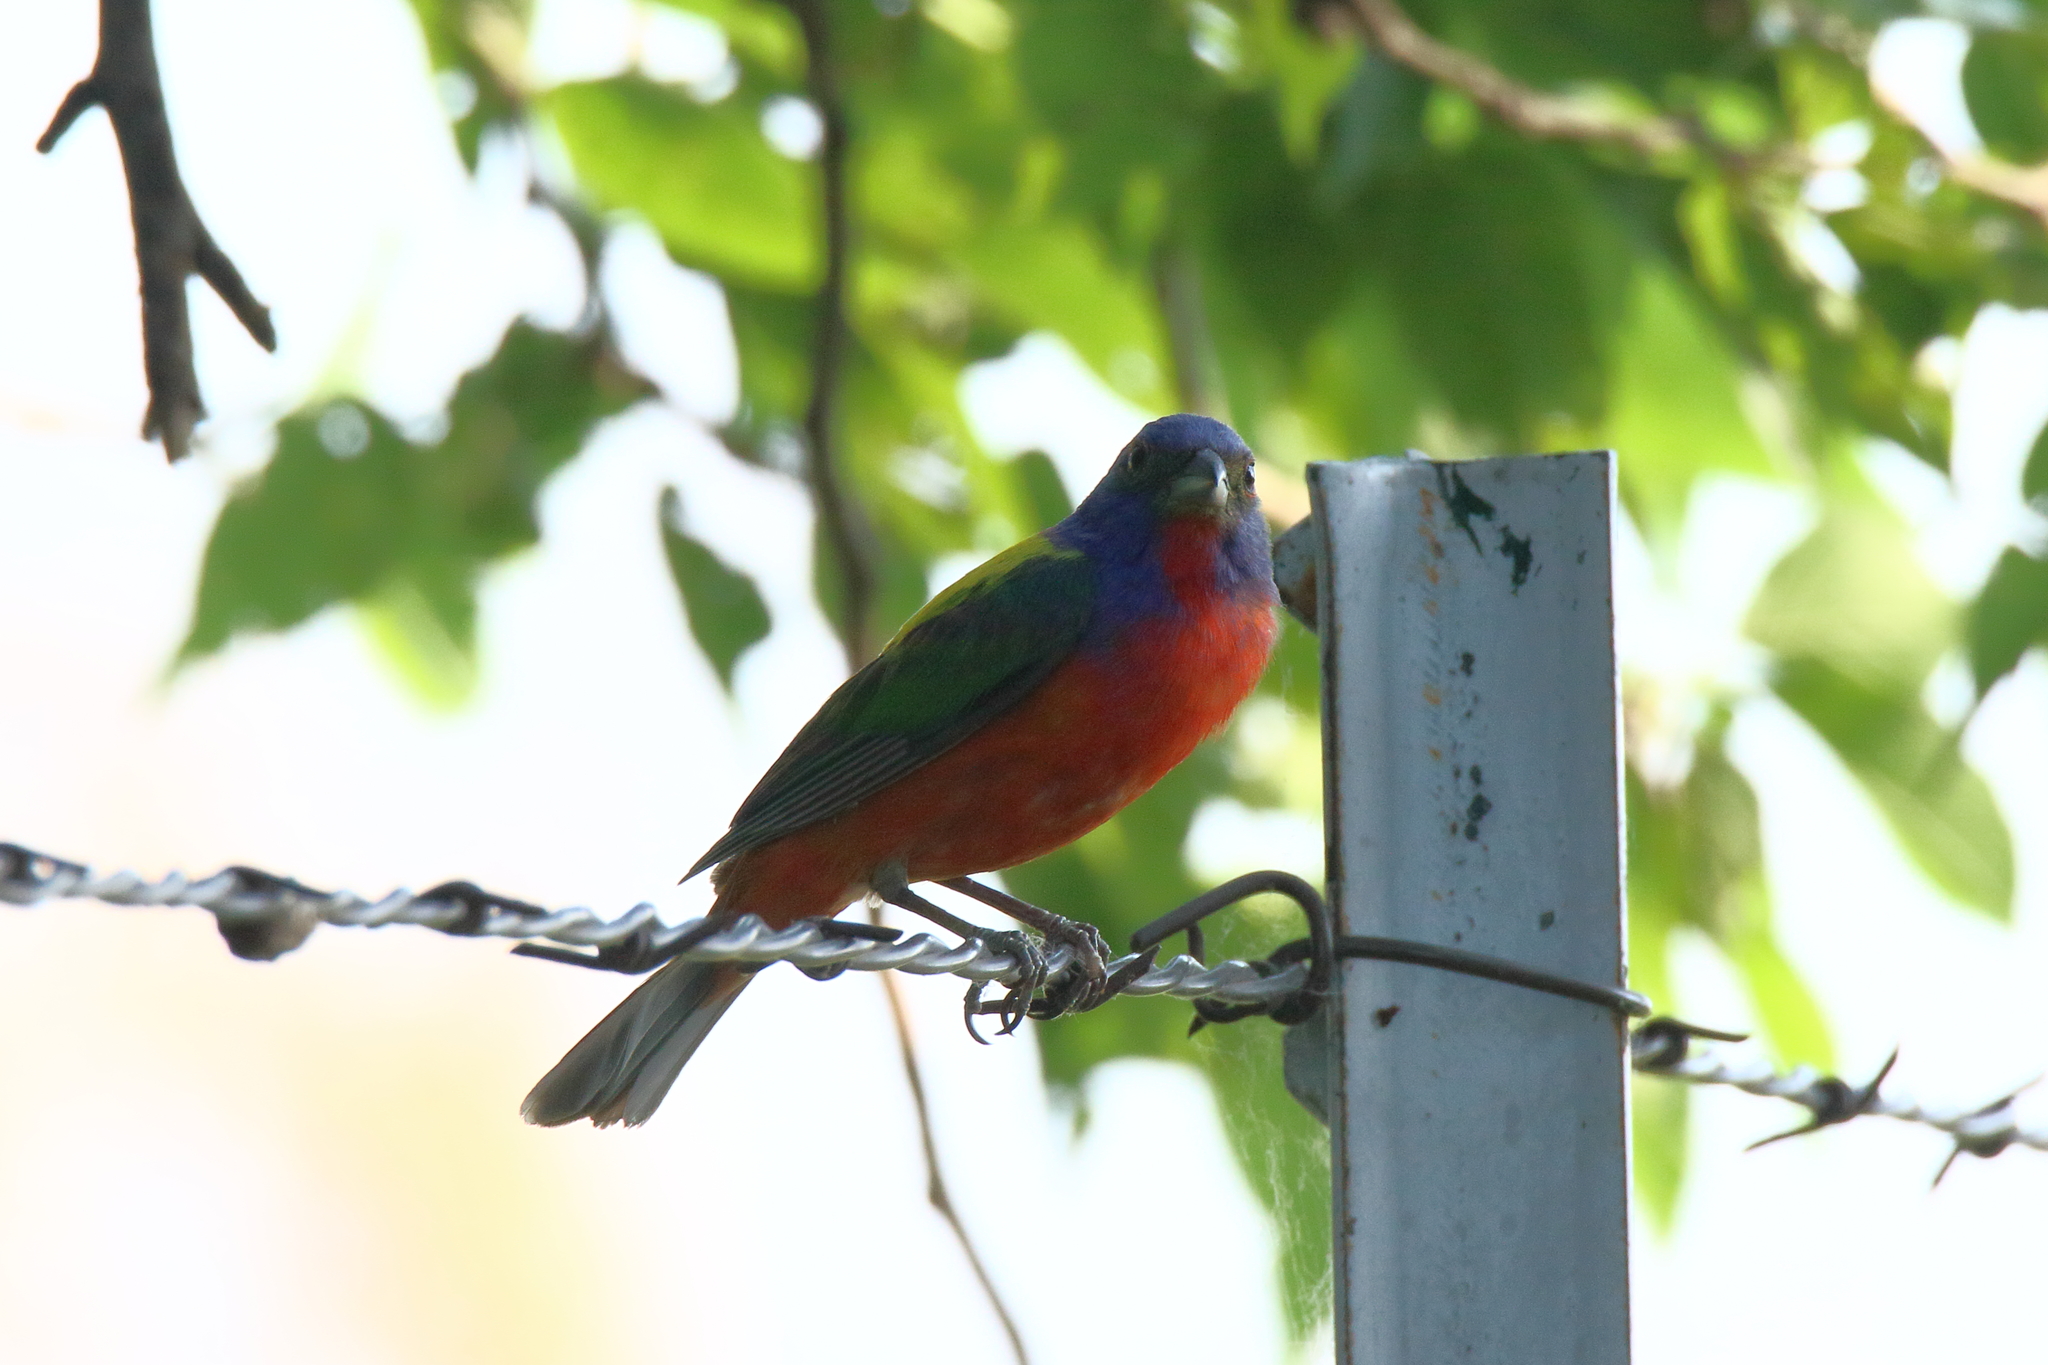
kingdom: Animalia
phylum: Chordata
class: Aves
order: Passeriformes
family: Cardinalidae
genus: Passerina
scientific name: Passerina ciris
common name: Painted bunting
